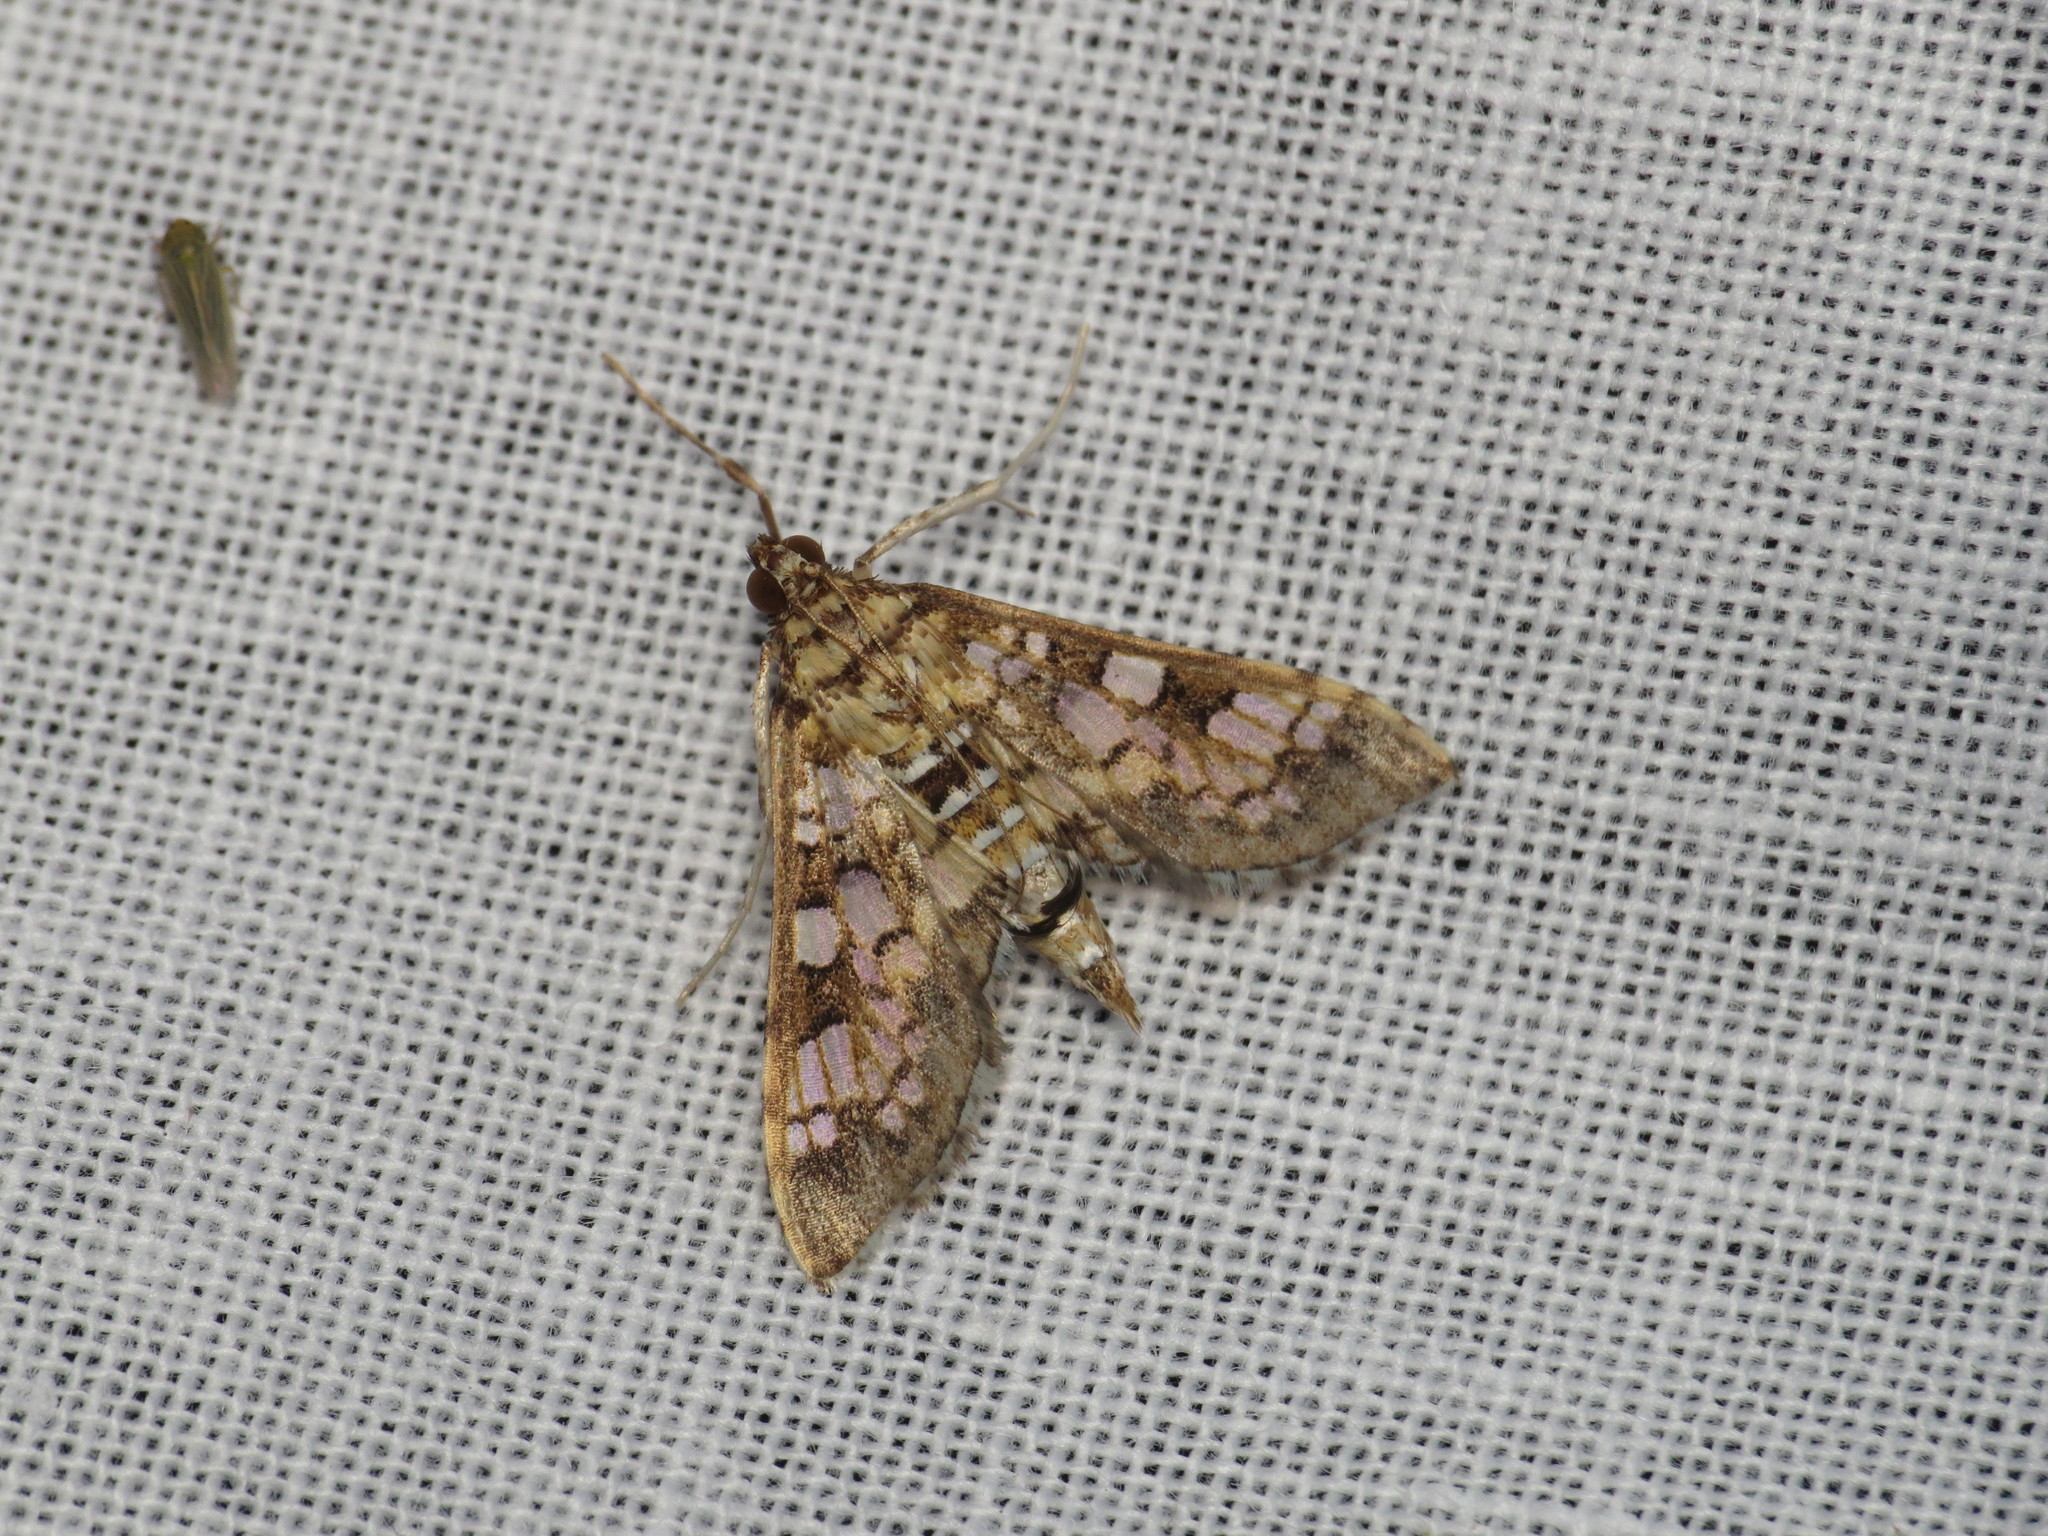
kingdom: Animalia
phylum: Arthropoda
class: Insecta
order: Lepidoptera
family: Crambidae
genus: Samea
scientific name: Samea ecclesialis
